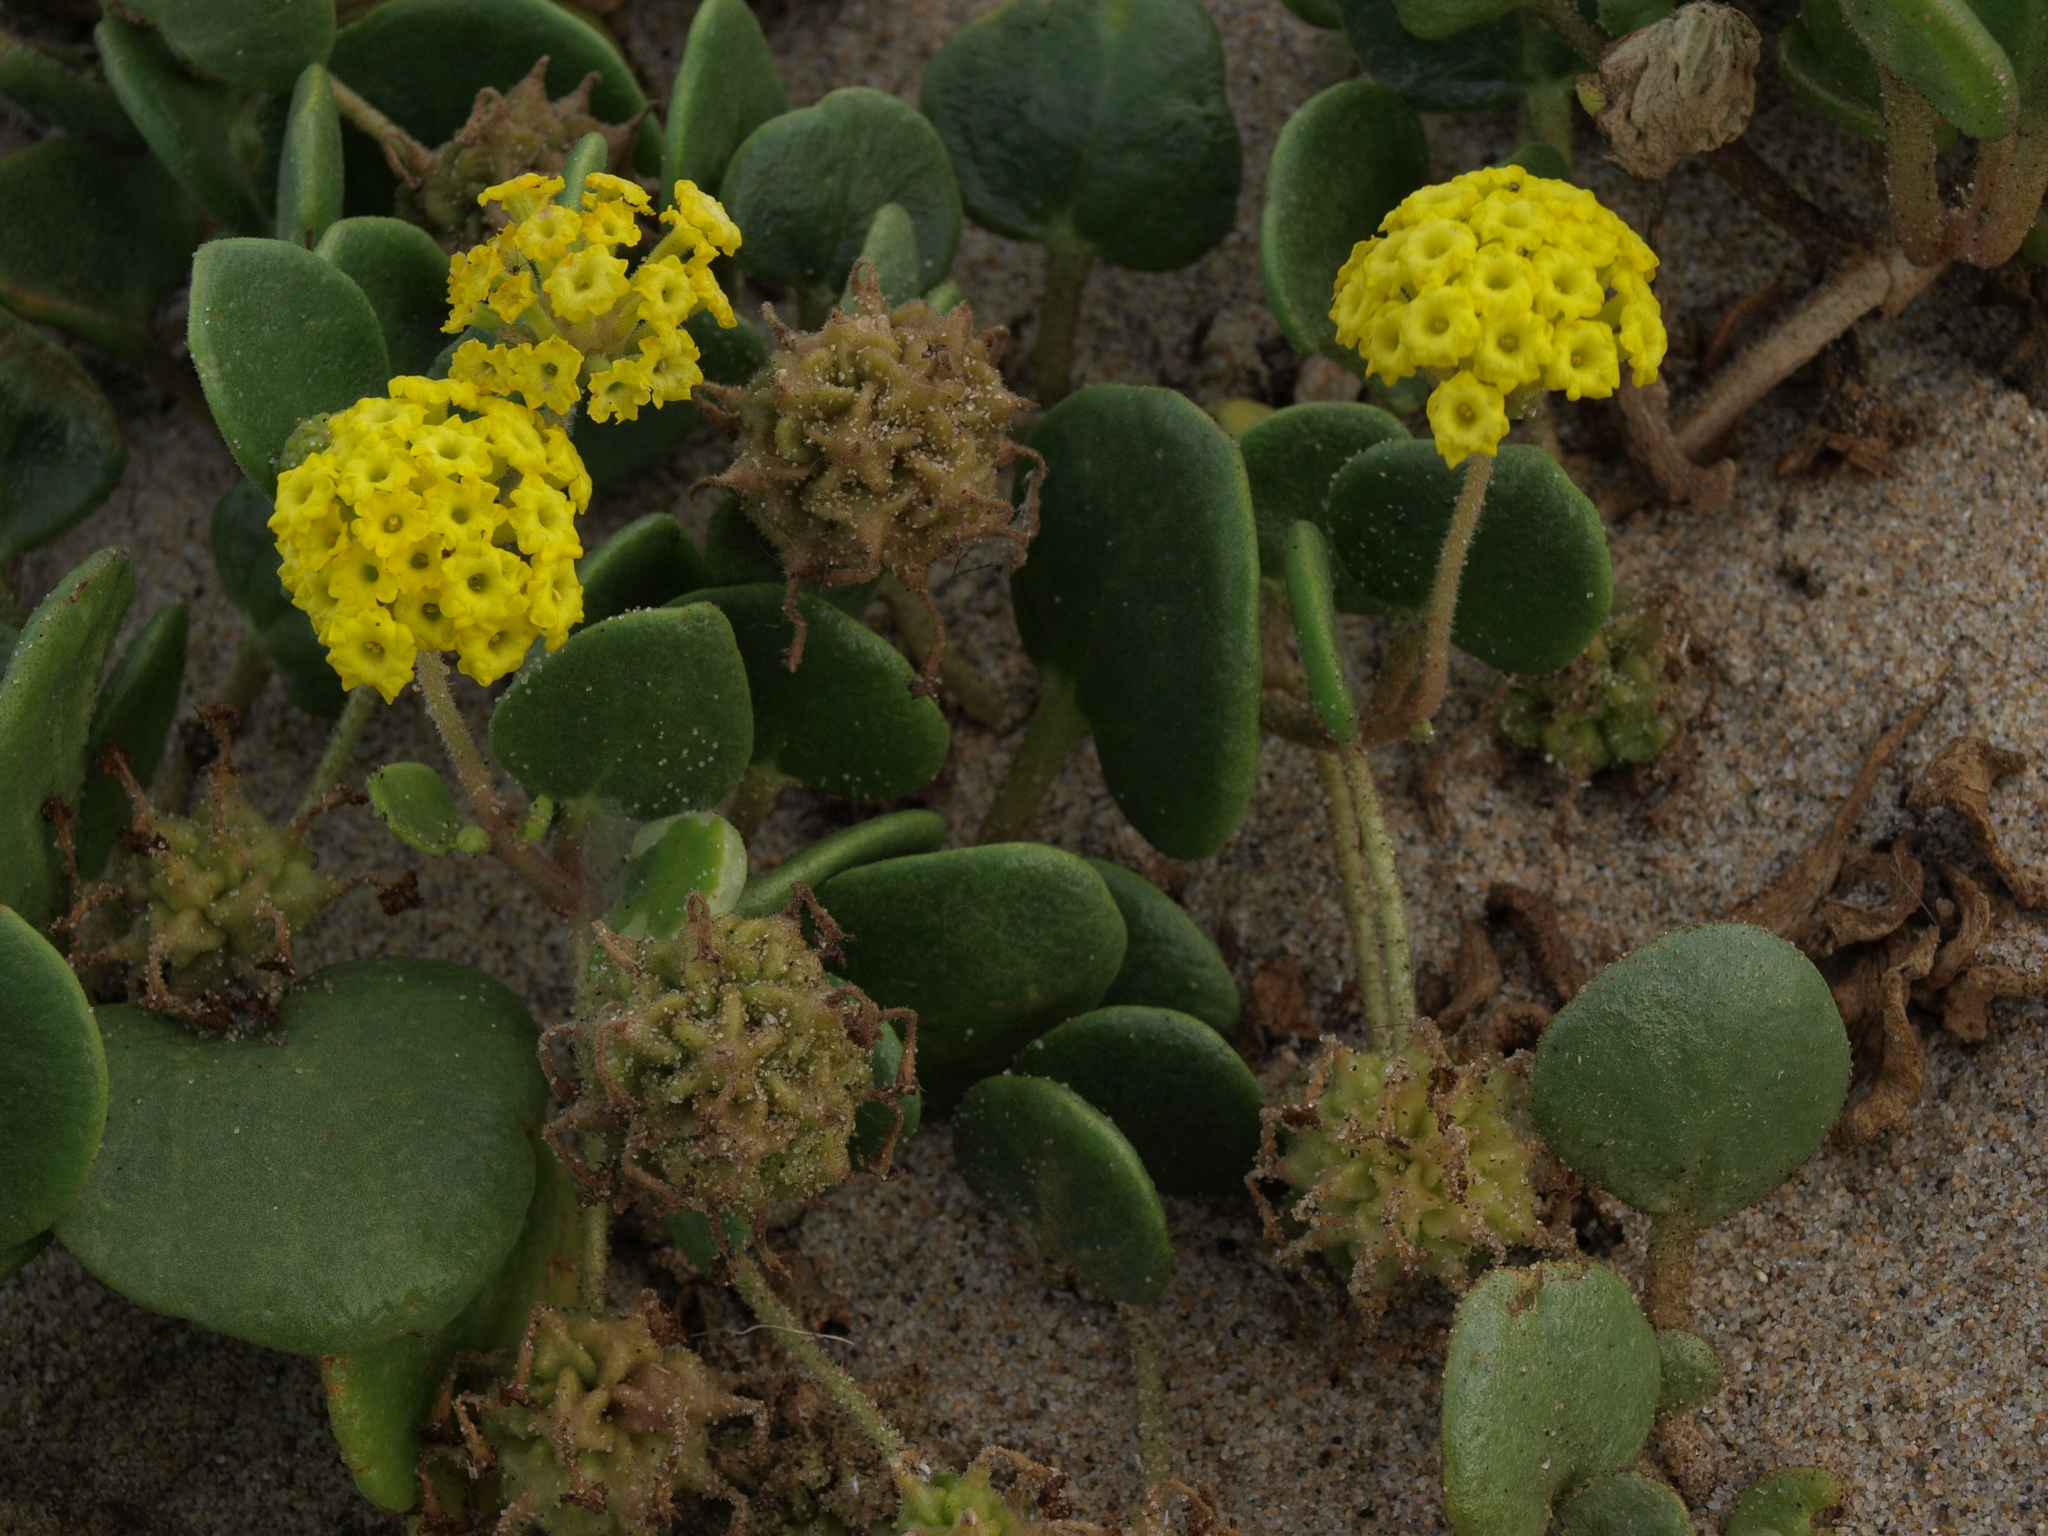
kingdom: Plantae
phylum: Tracheophyta
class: Magnoliopsida
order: Caryophyllales
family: Nyctaginaceae
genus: Abronia
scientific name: Abronia latifolia
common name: Yellow sand-verbena
